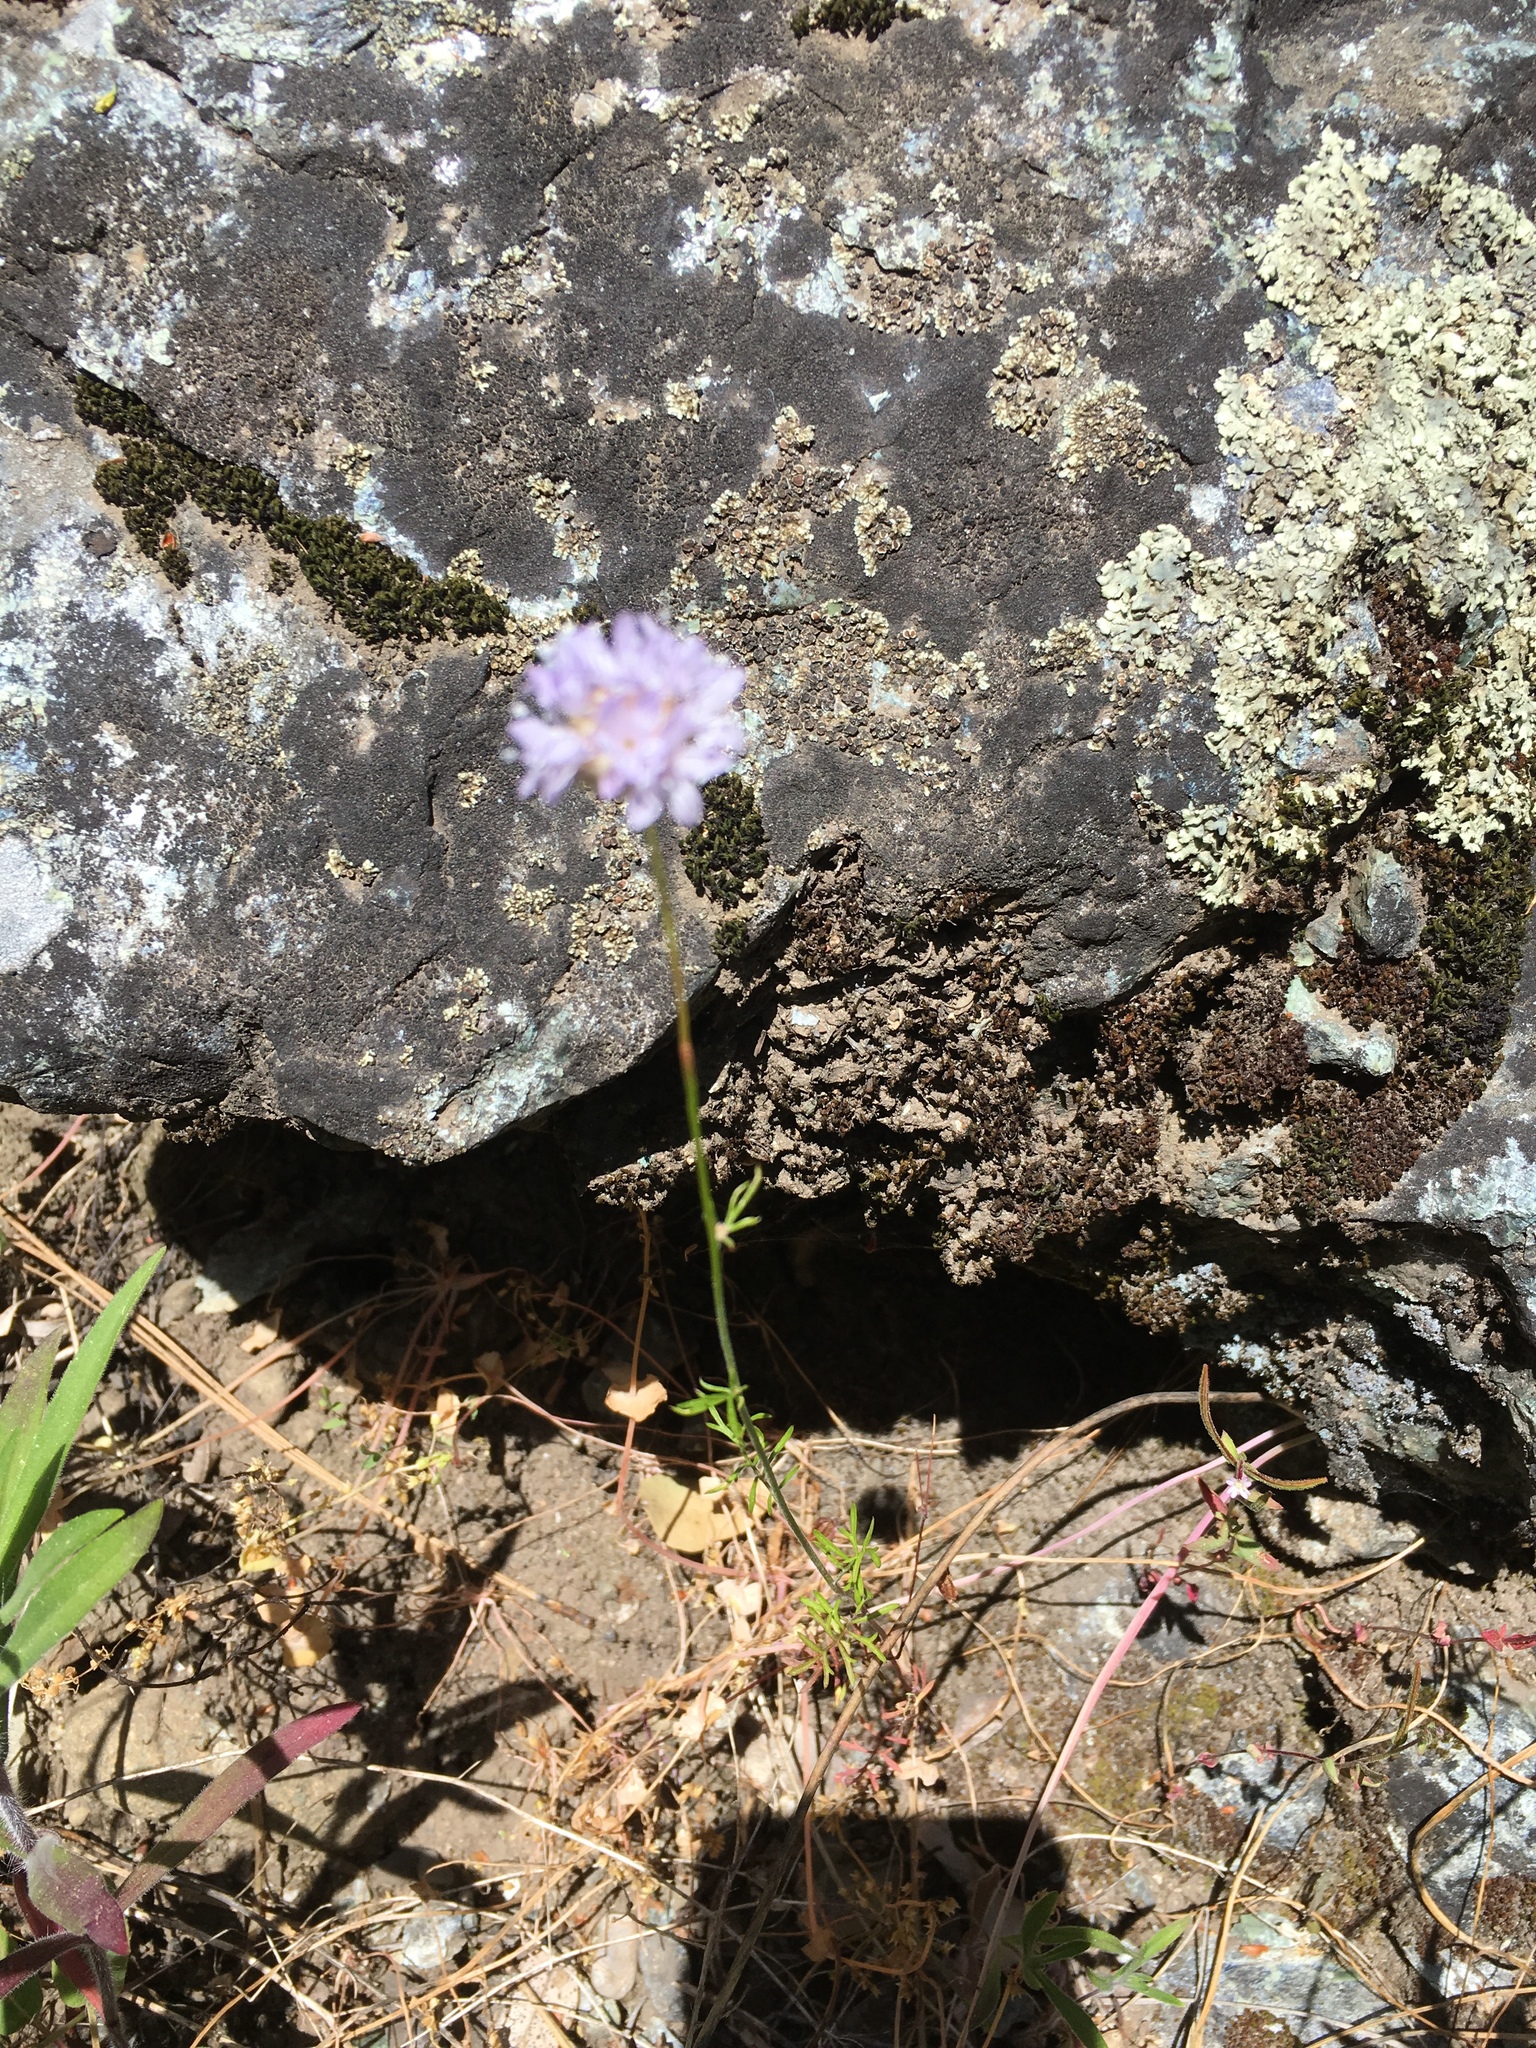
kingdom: Plantae
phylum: Tracheophyta
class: Magnoliopsida
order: Ericales
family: Polemoniaceae
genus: Gilia
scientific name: Gilia capitata
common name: Bluehead gilia
